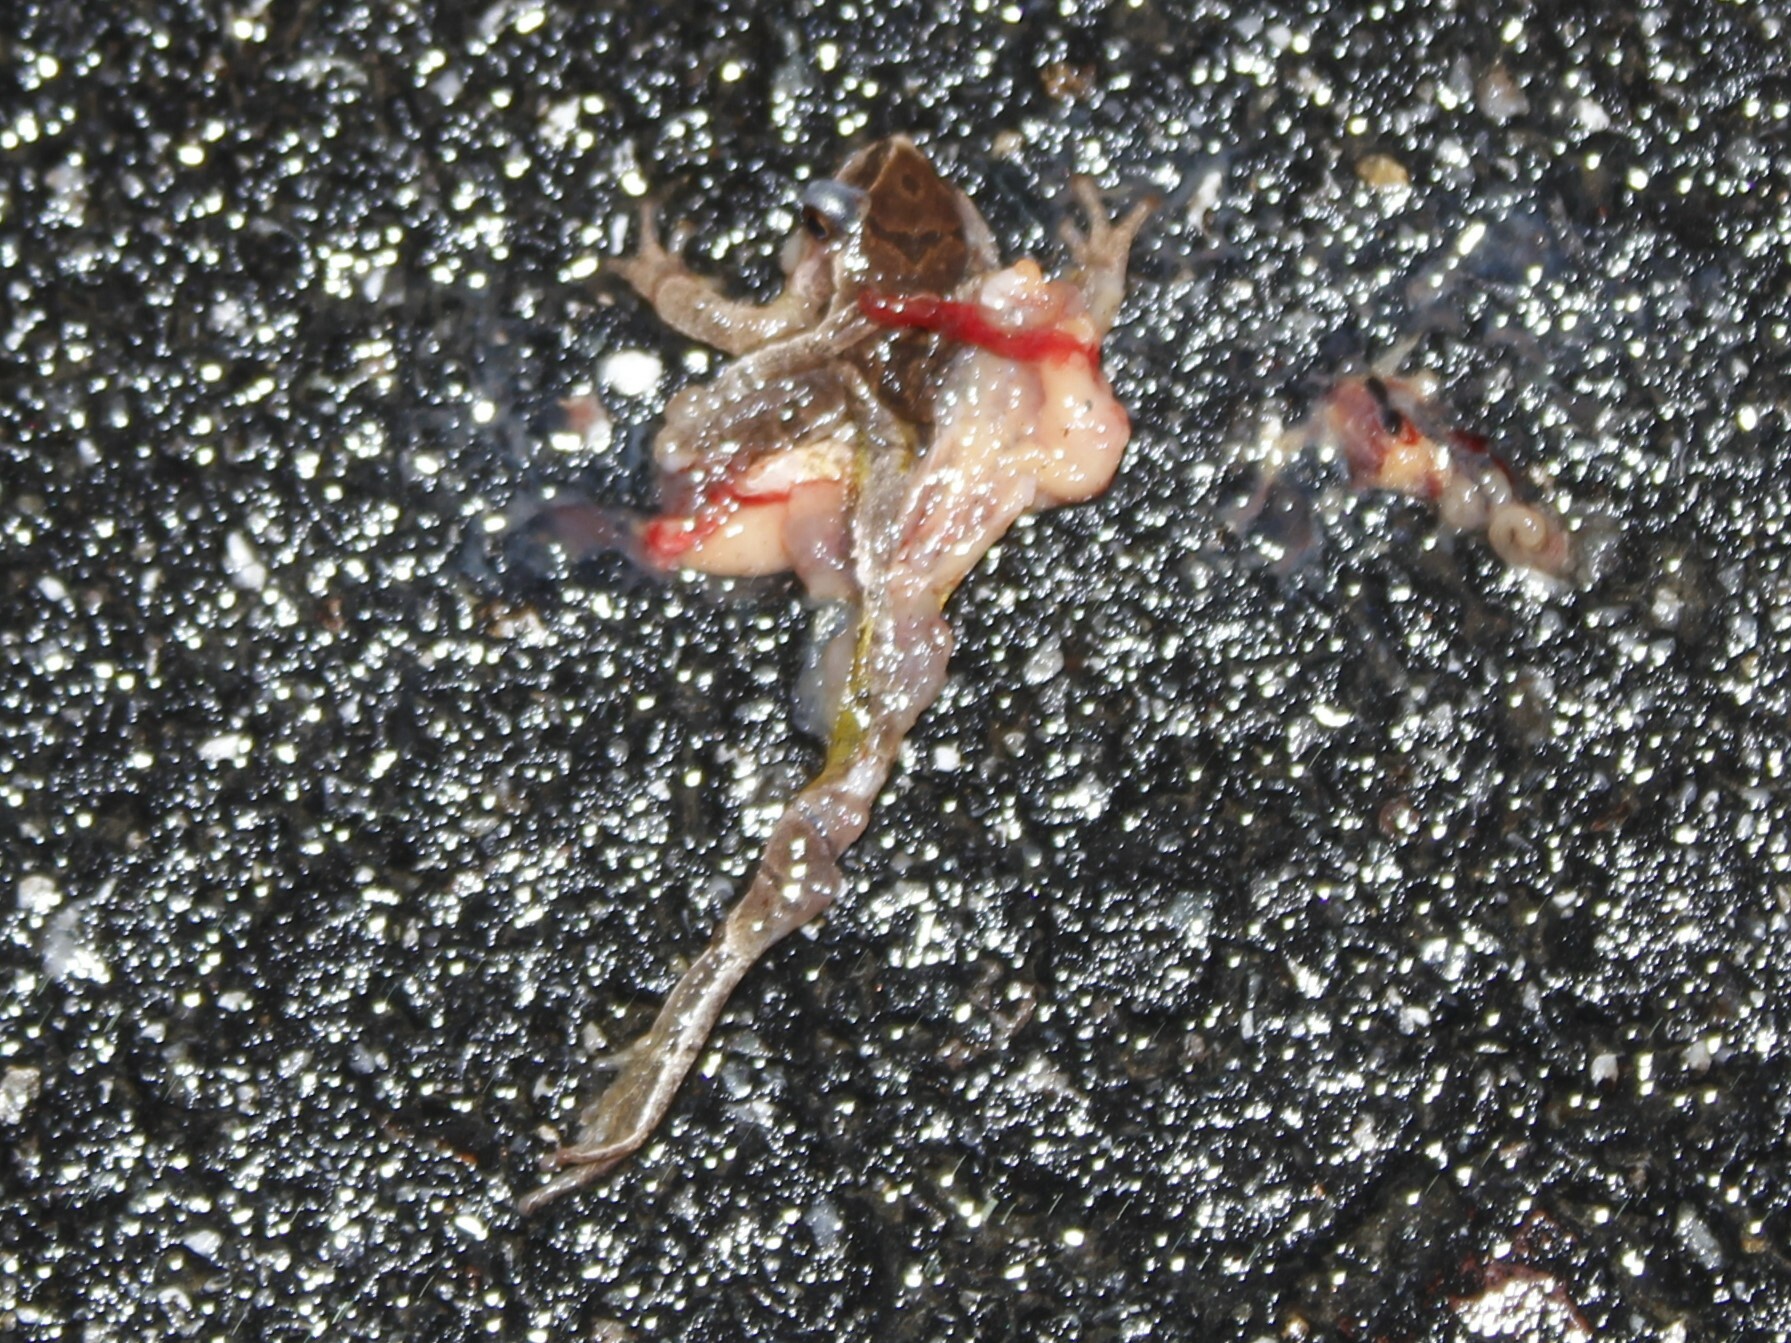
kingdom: Animalia
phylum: Chordata
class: Amphibia
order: Anura
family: Hylidae
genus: Pseudacris
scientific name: Pseudacris crucifer
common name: Spring peeper
